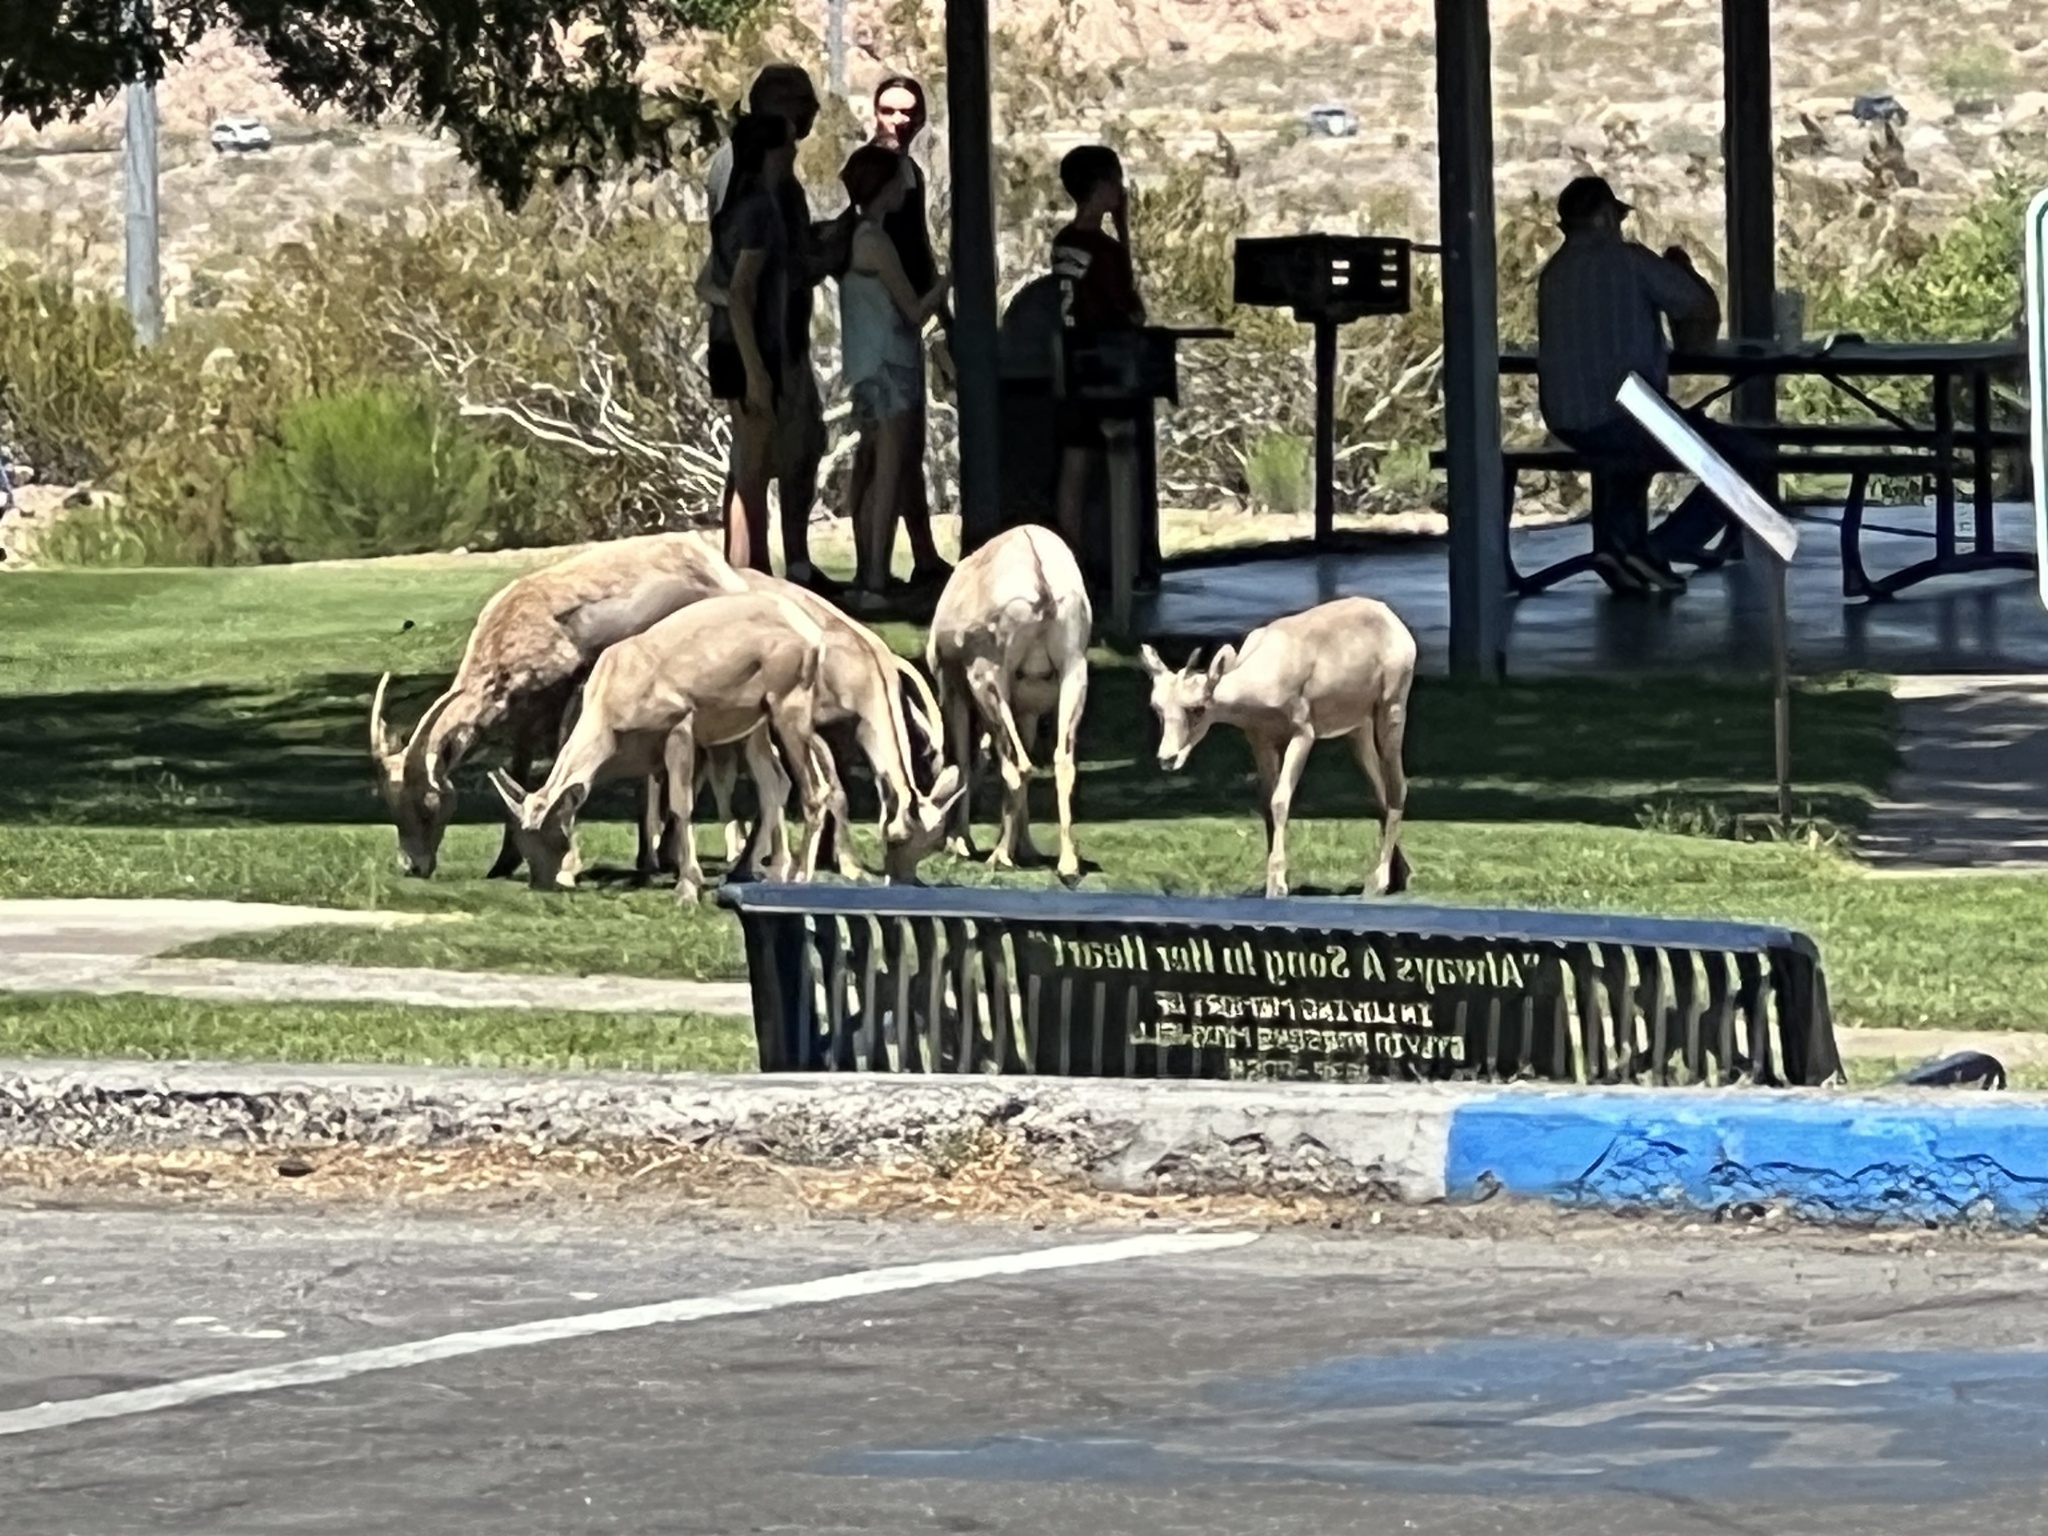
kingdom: Animalia
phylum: Chordata
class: Mammalia
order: Artiodactyla
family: Bovidae
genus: Ovis
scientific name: Ovis canadensis
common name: Bighorn sheep
